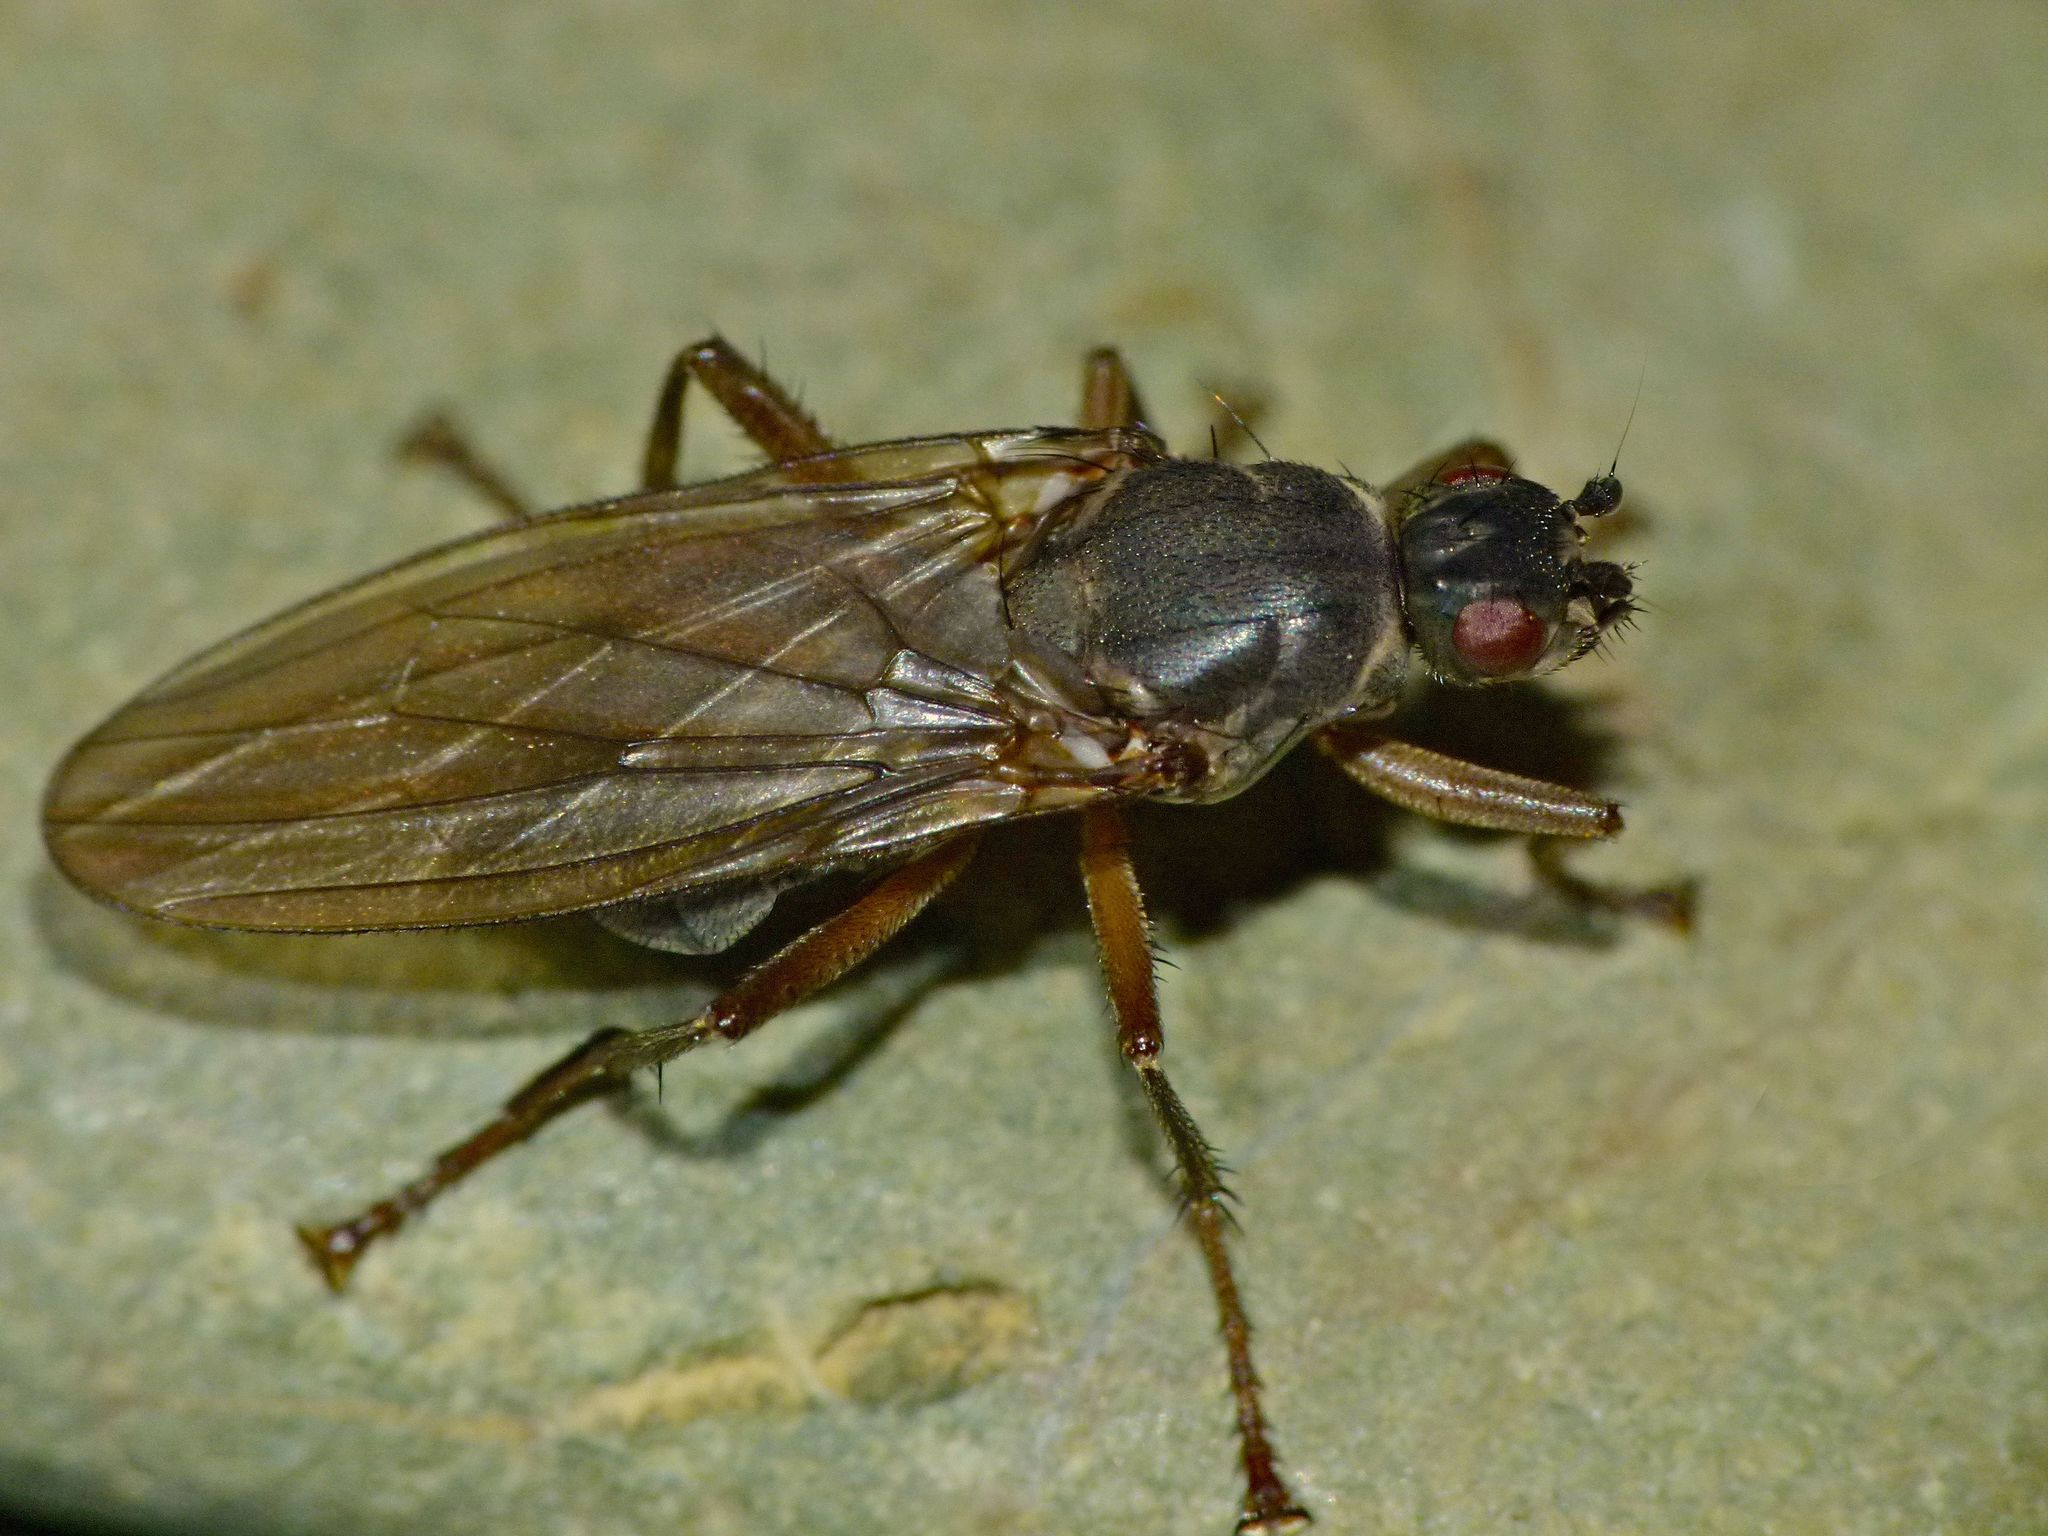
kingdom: Animalia
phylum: Arthropoda
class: Insecta
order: Diptera
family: Coelopidae
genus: Baeopterus
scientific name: Baeopterus philpotti
